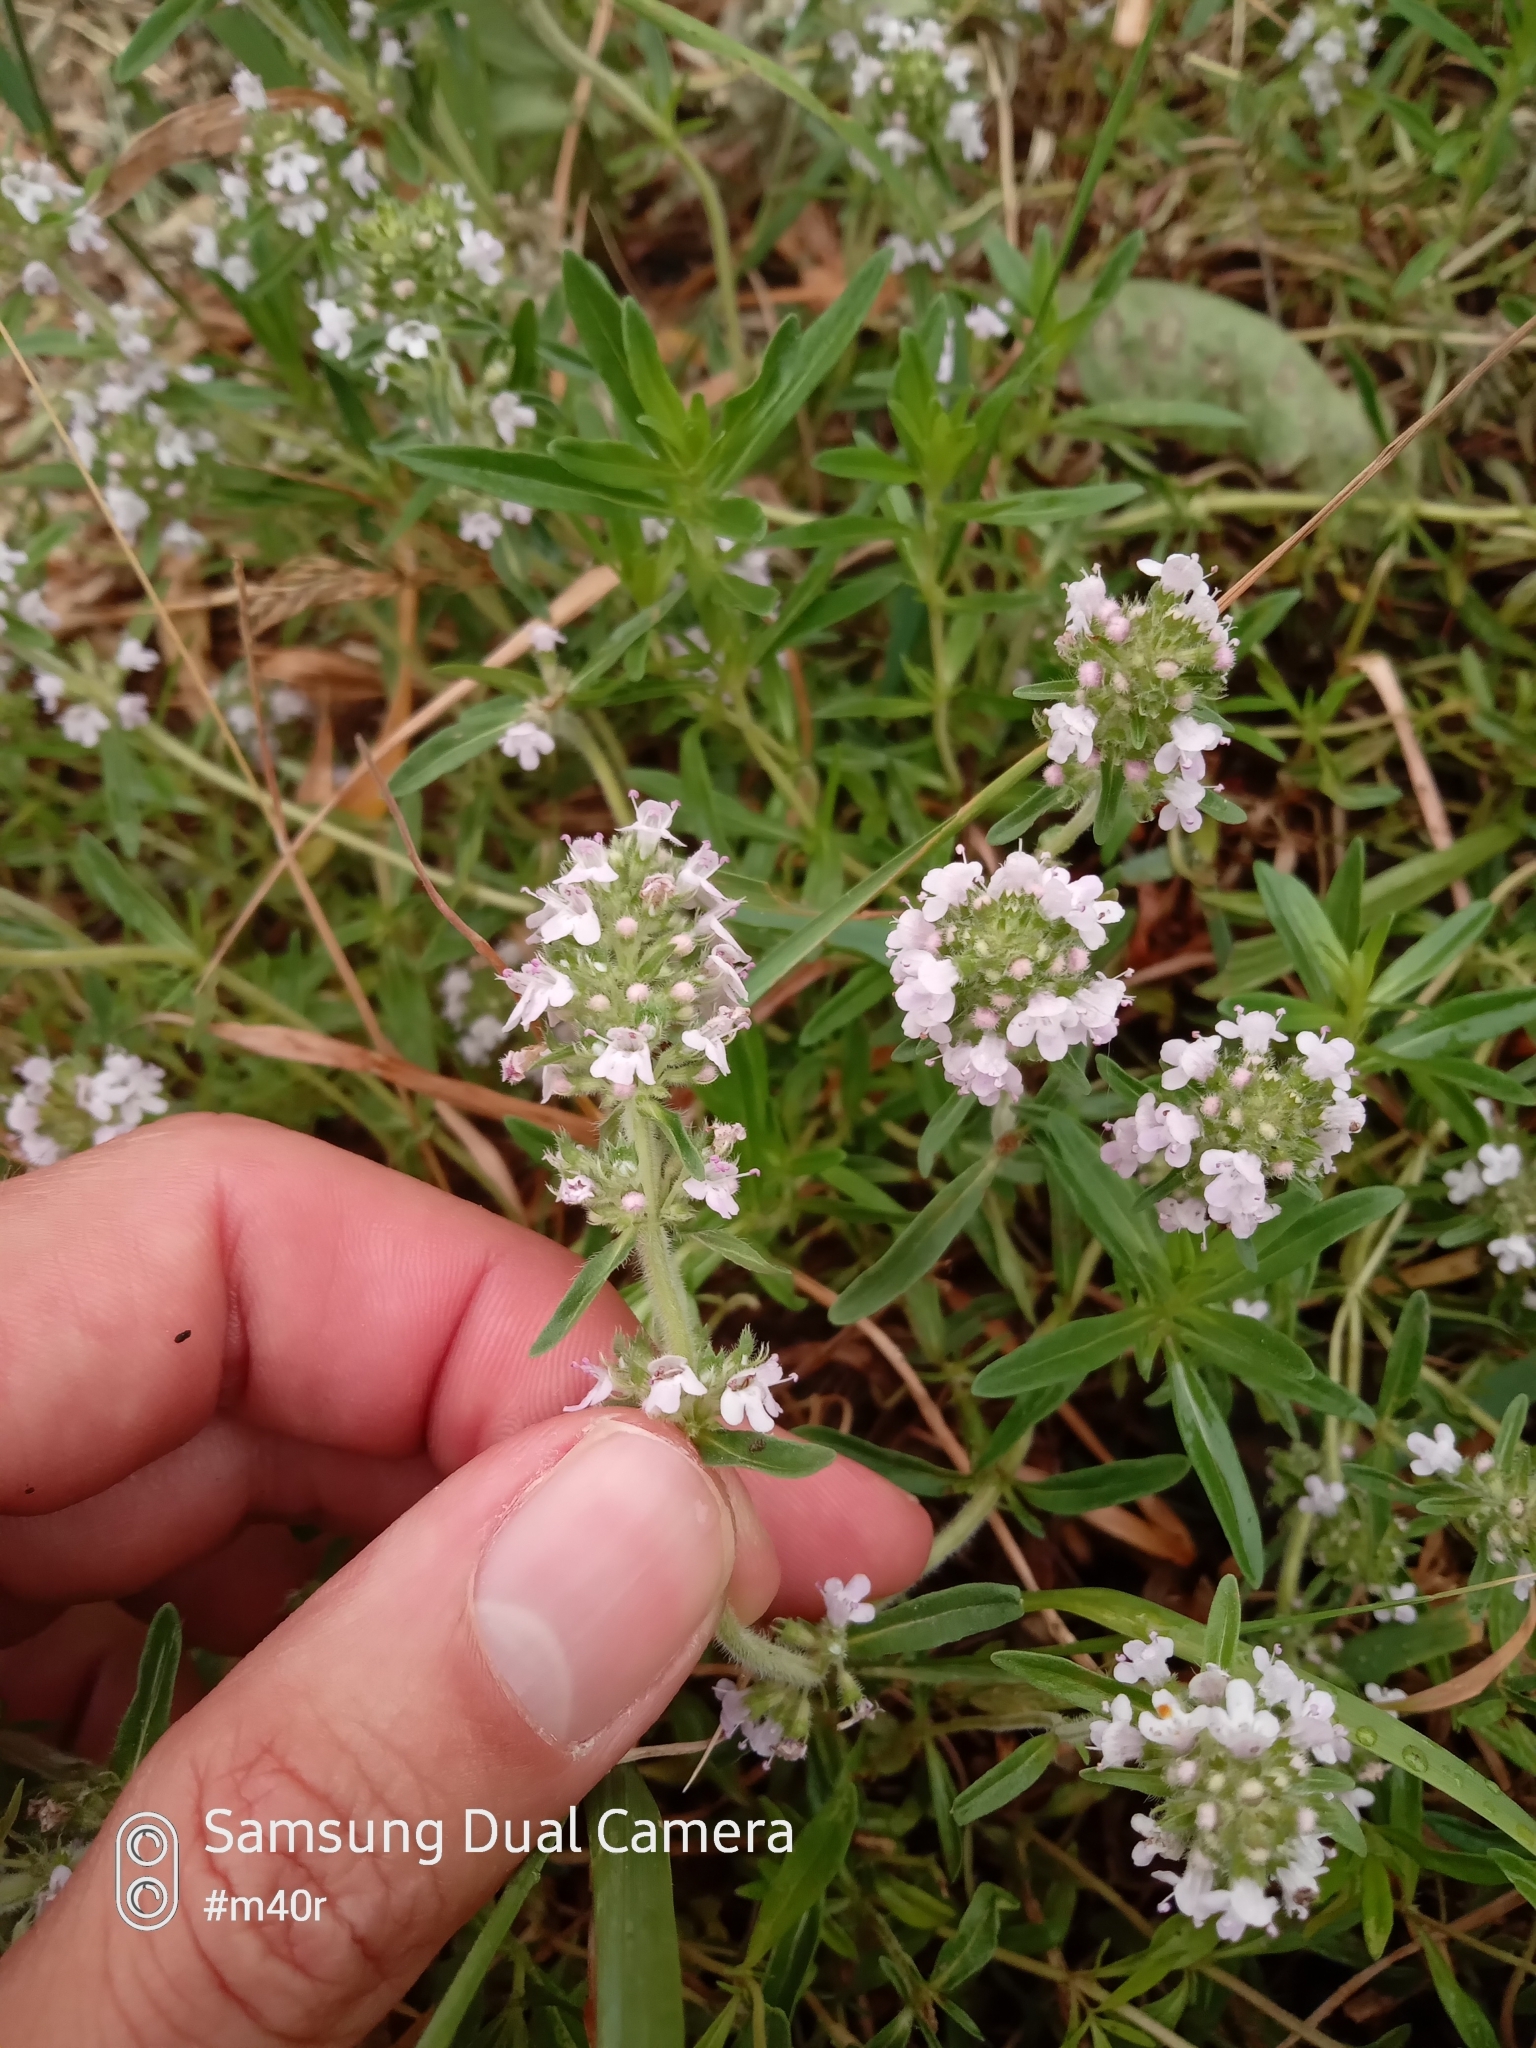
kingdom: Plantae
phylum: Tracheophyta
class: Magnoliopsida
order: Lamiales
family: Lamiaceae
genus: Thymus
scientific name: Thymus pannonicus
